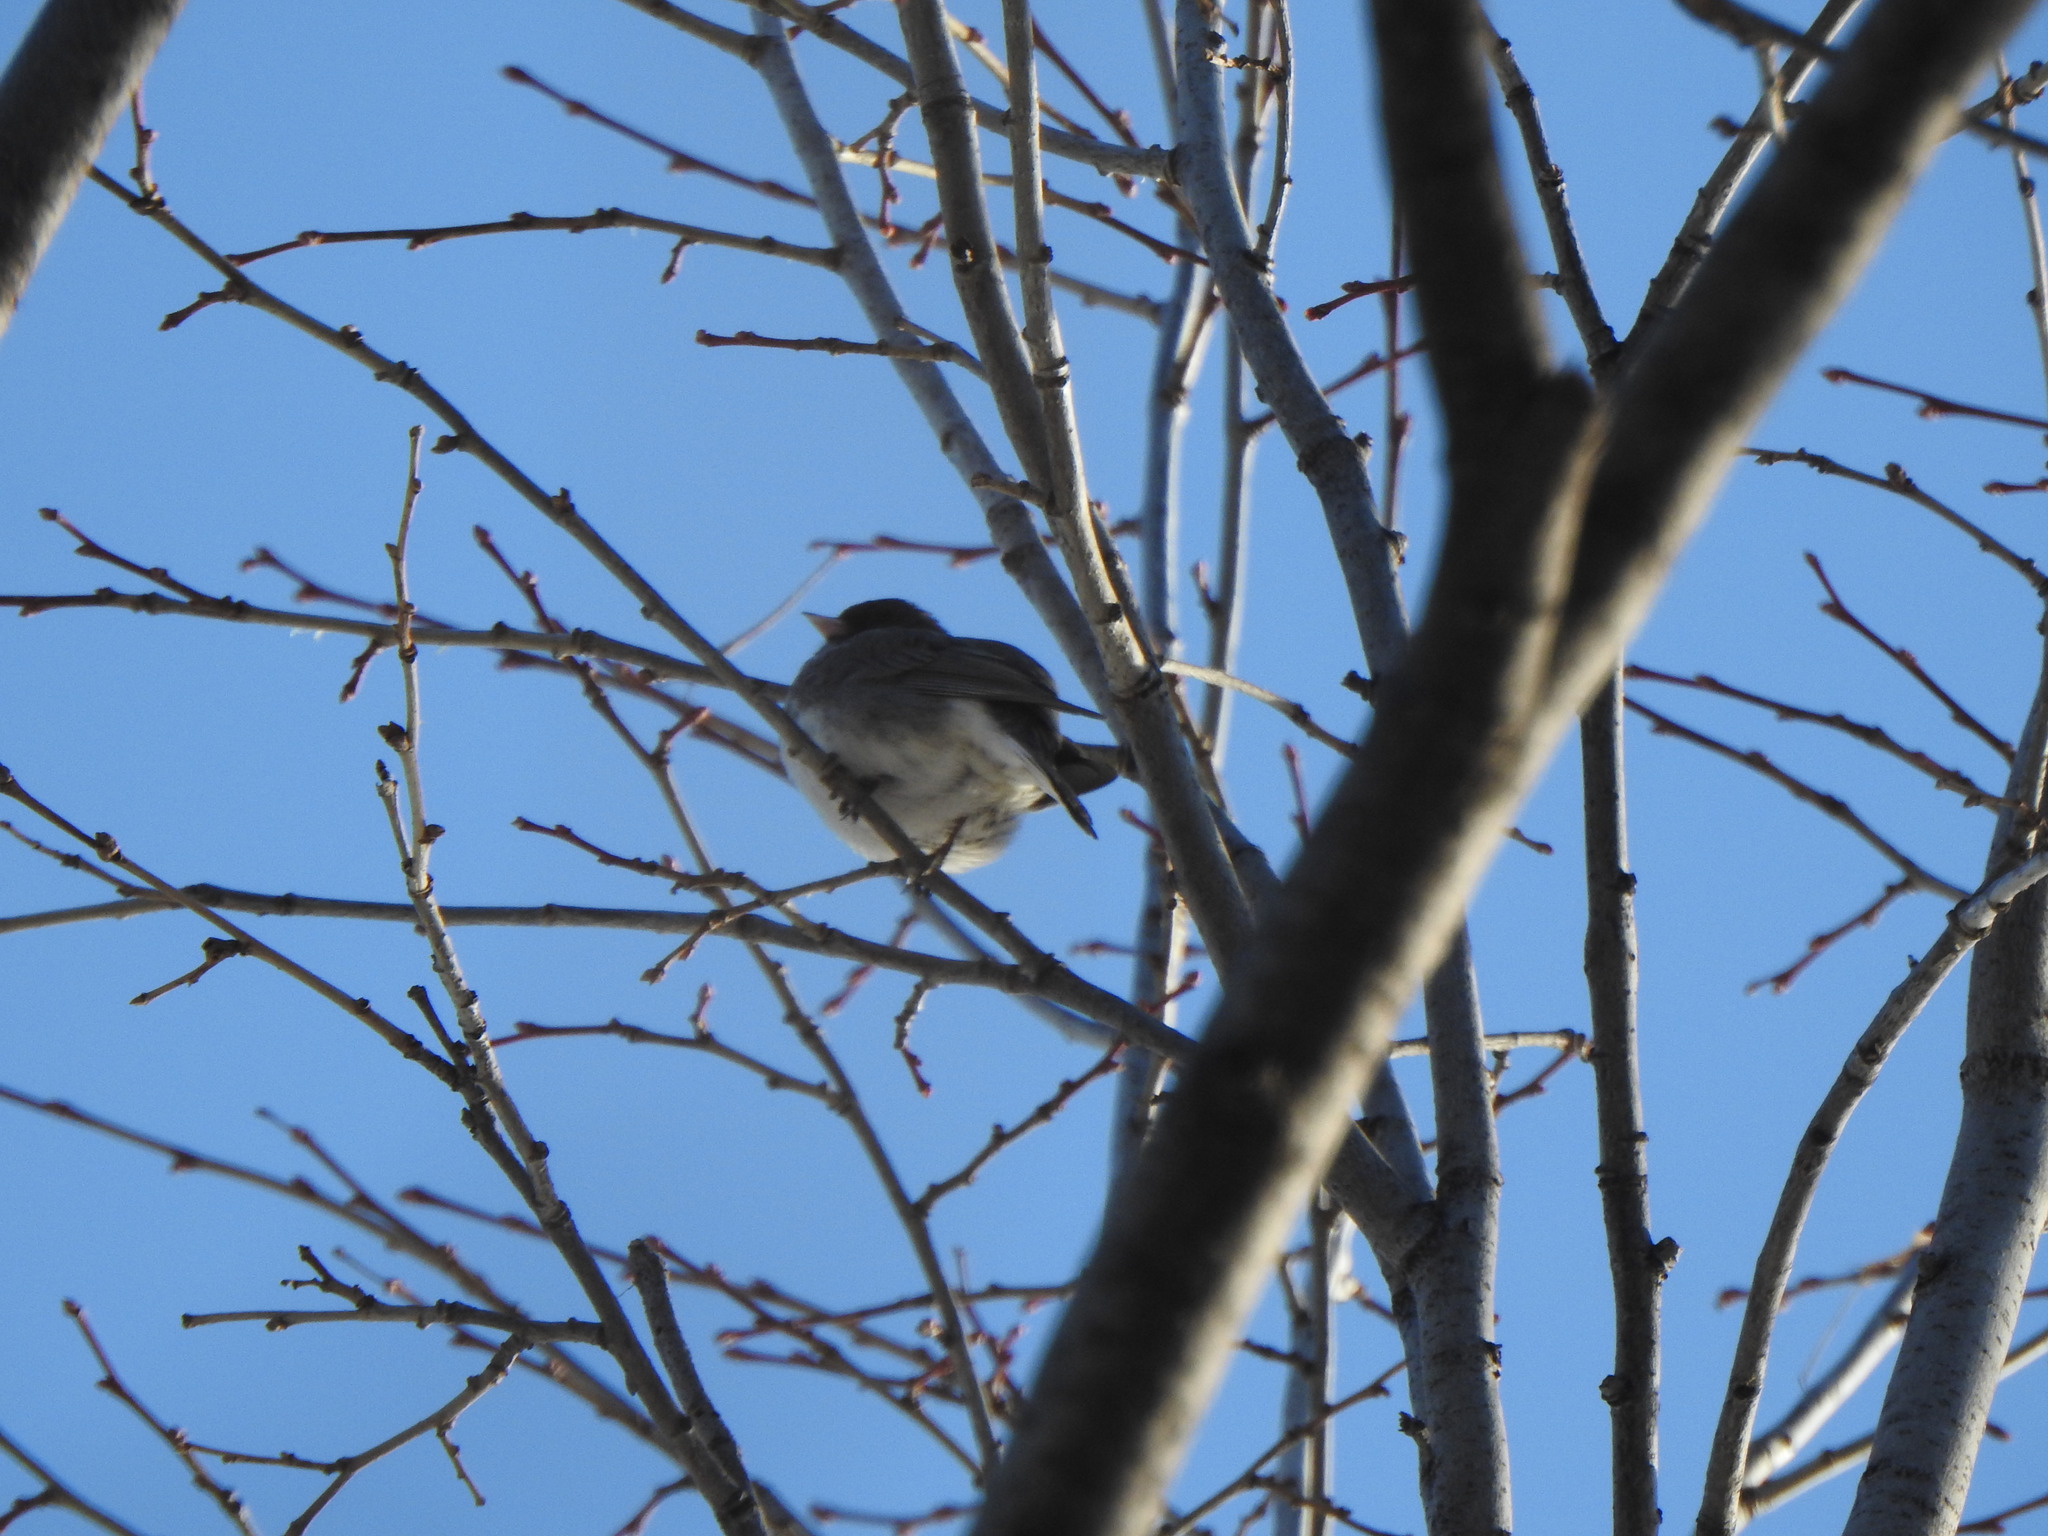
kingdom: Animalia
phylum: Chordata
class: Aves
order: Passeriformes
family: Passerellidae
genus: Junco
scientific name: Junco hyemalis
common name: Dark-eyed junco
